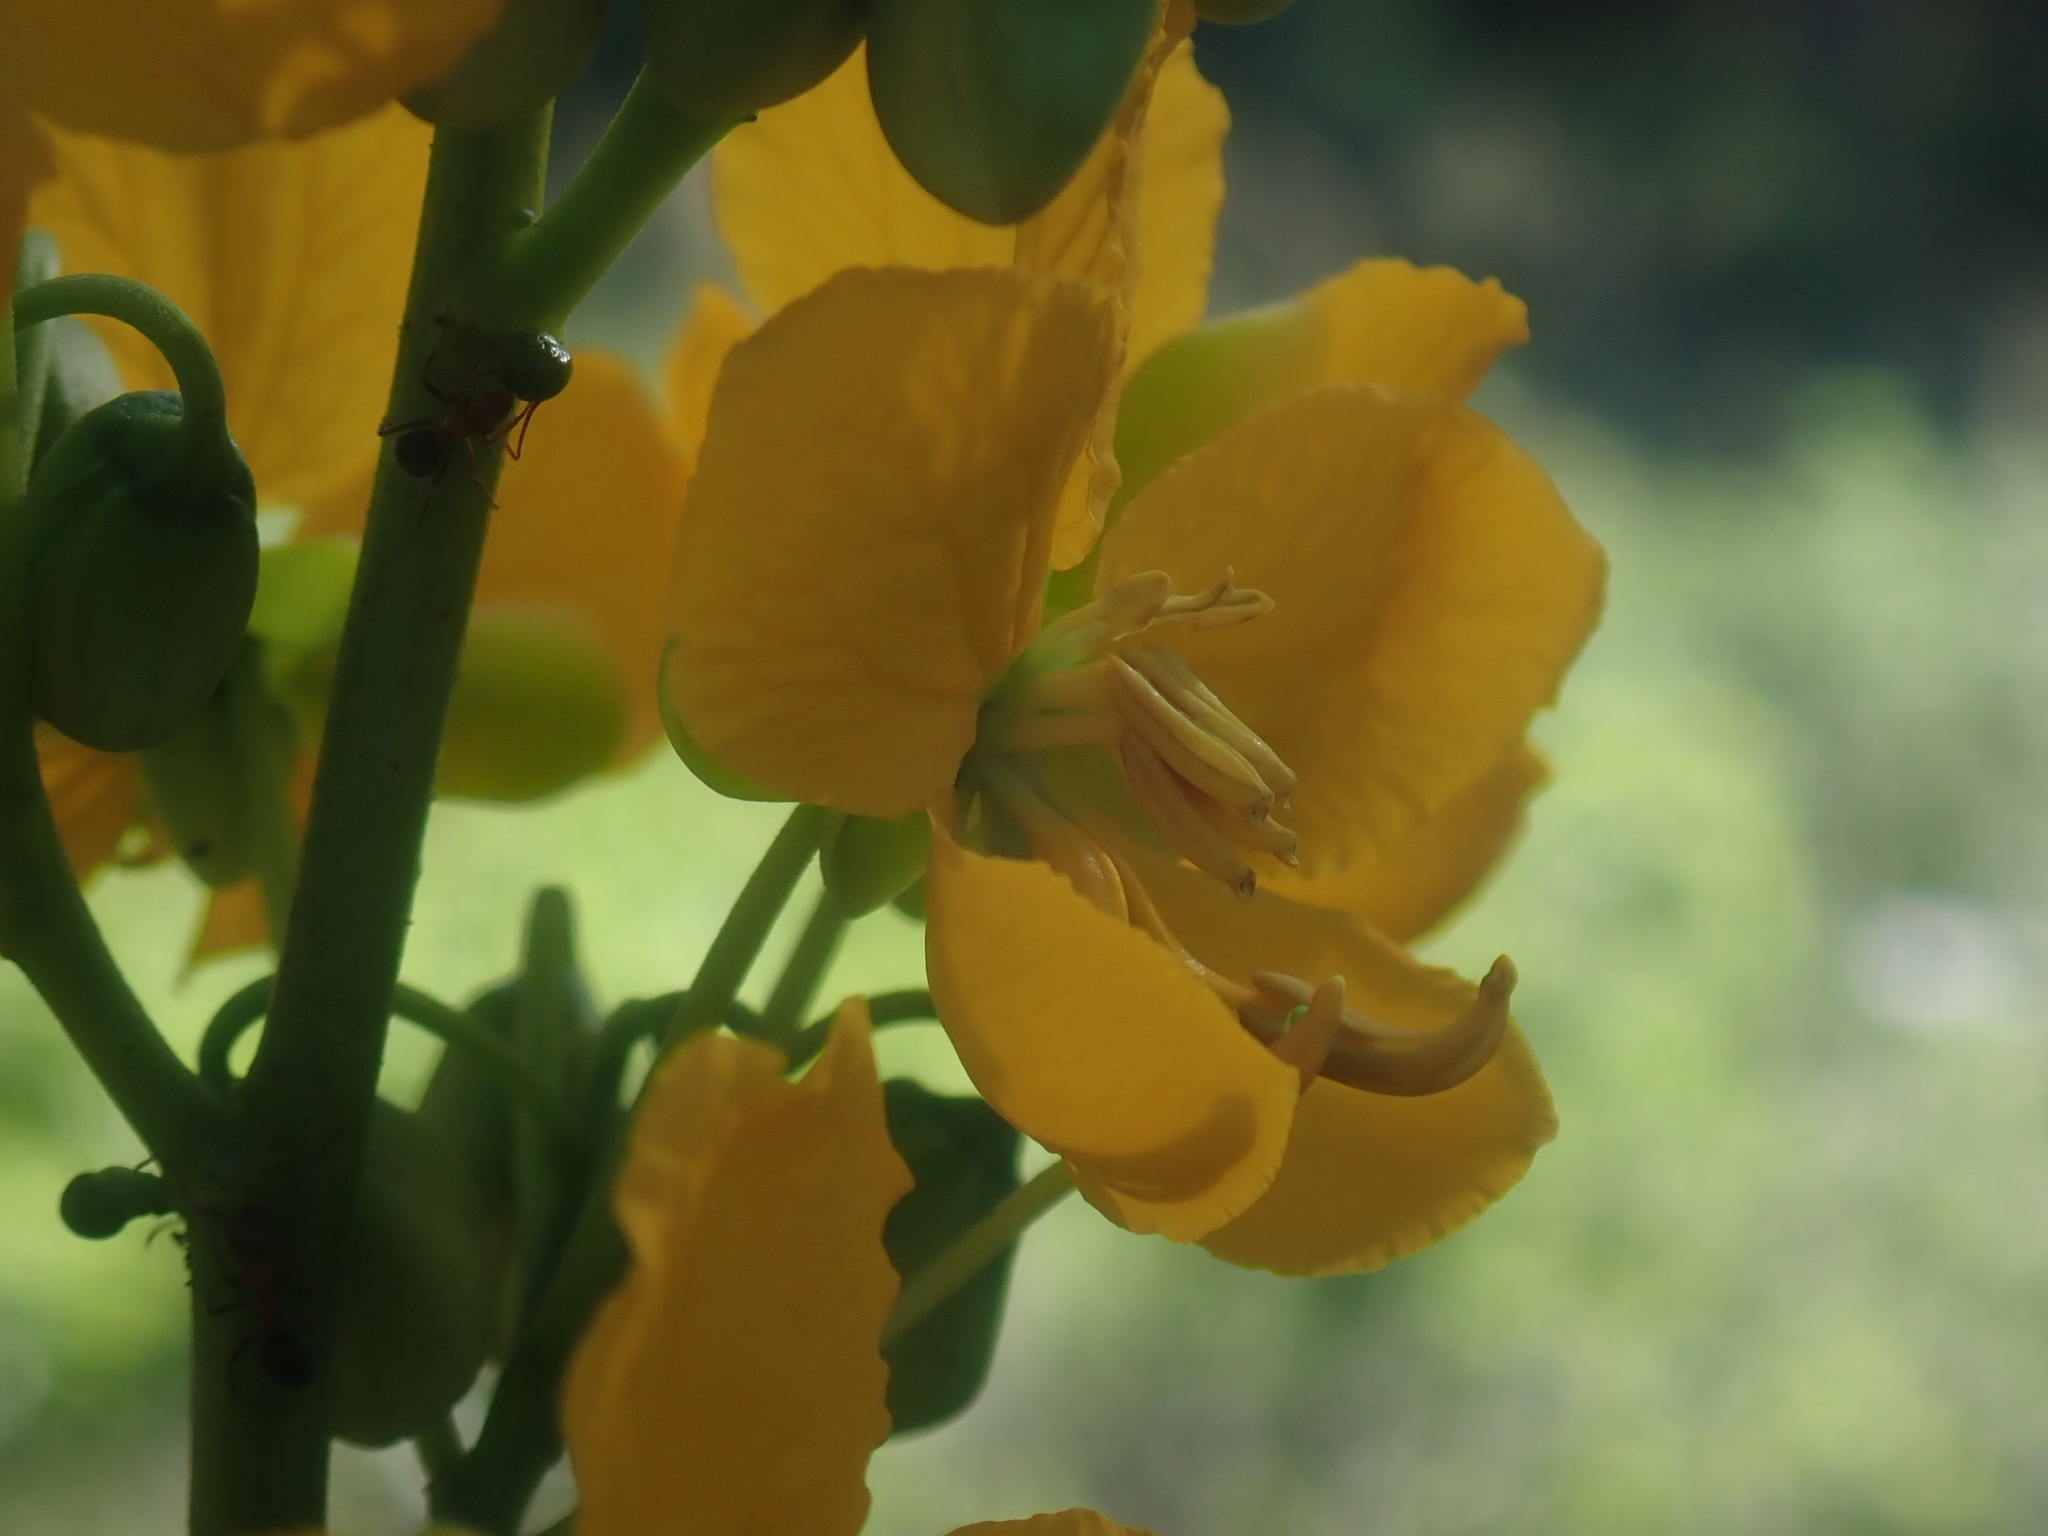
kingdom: Plantae
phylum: Tracheophyta
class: Magnoliopsida
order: Fabales
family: Fabaceae
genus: Senna
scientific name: Senna hirsuta
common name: Woolly senna
